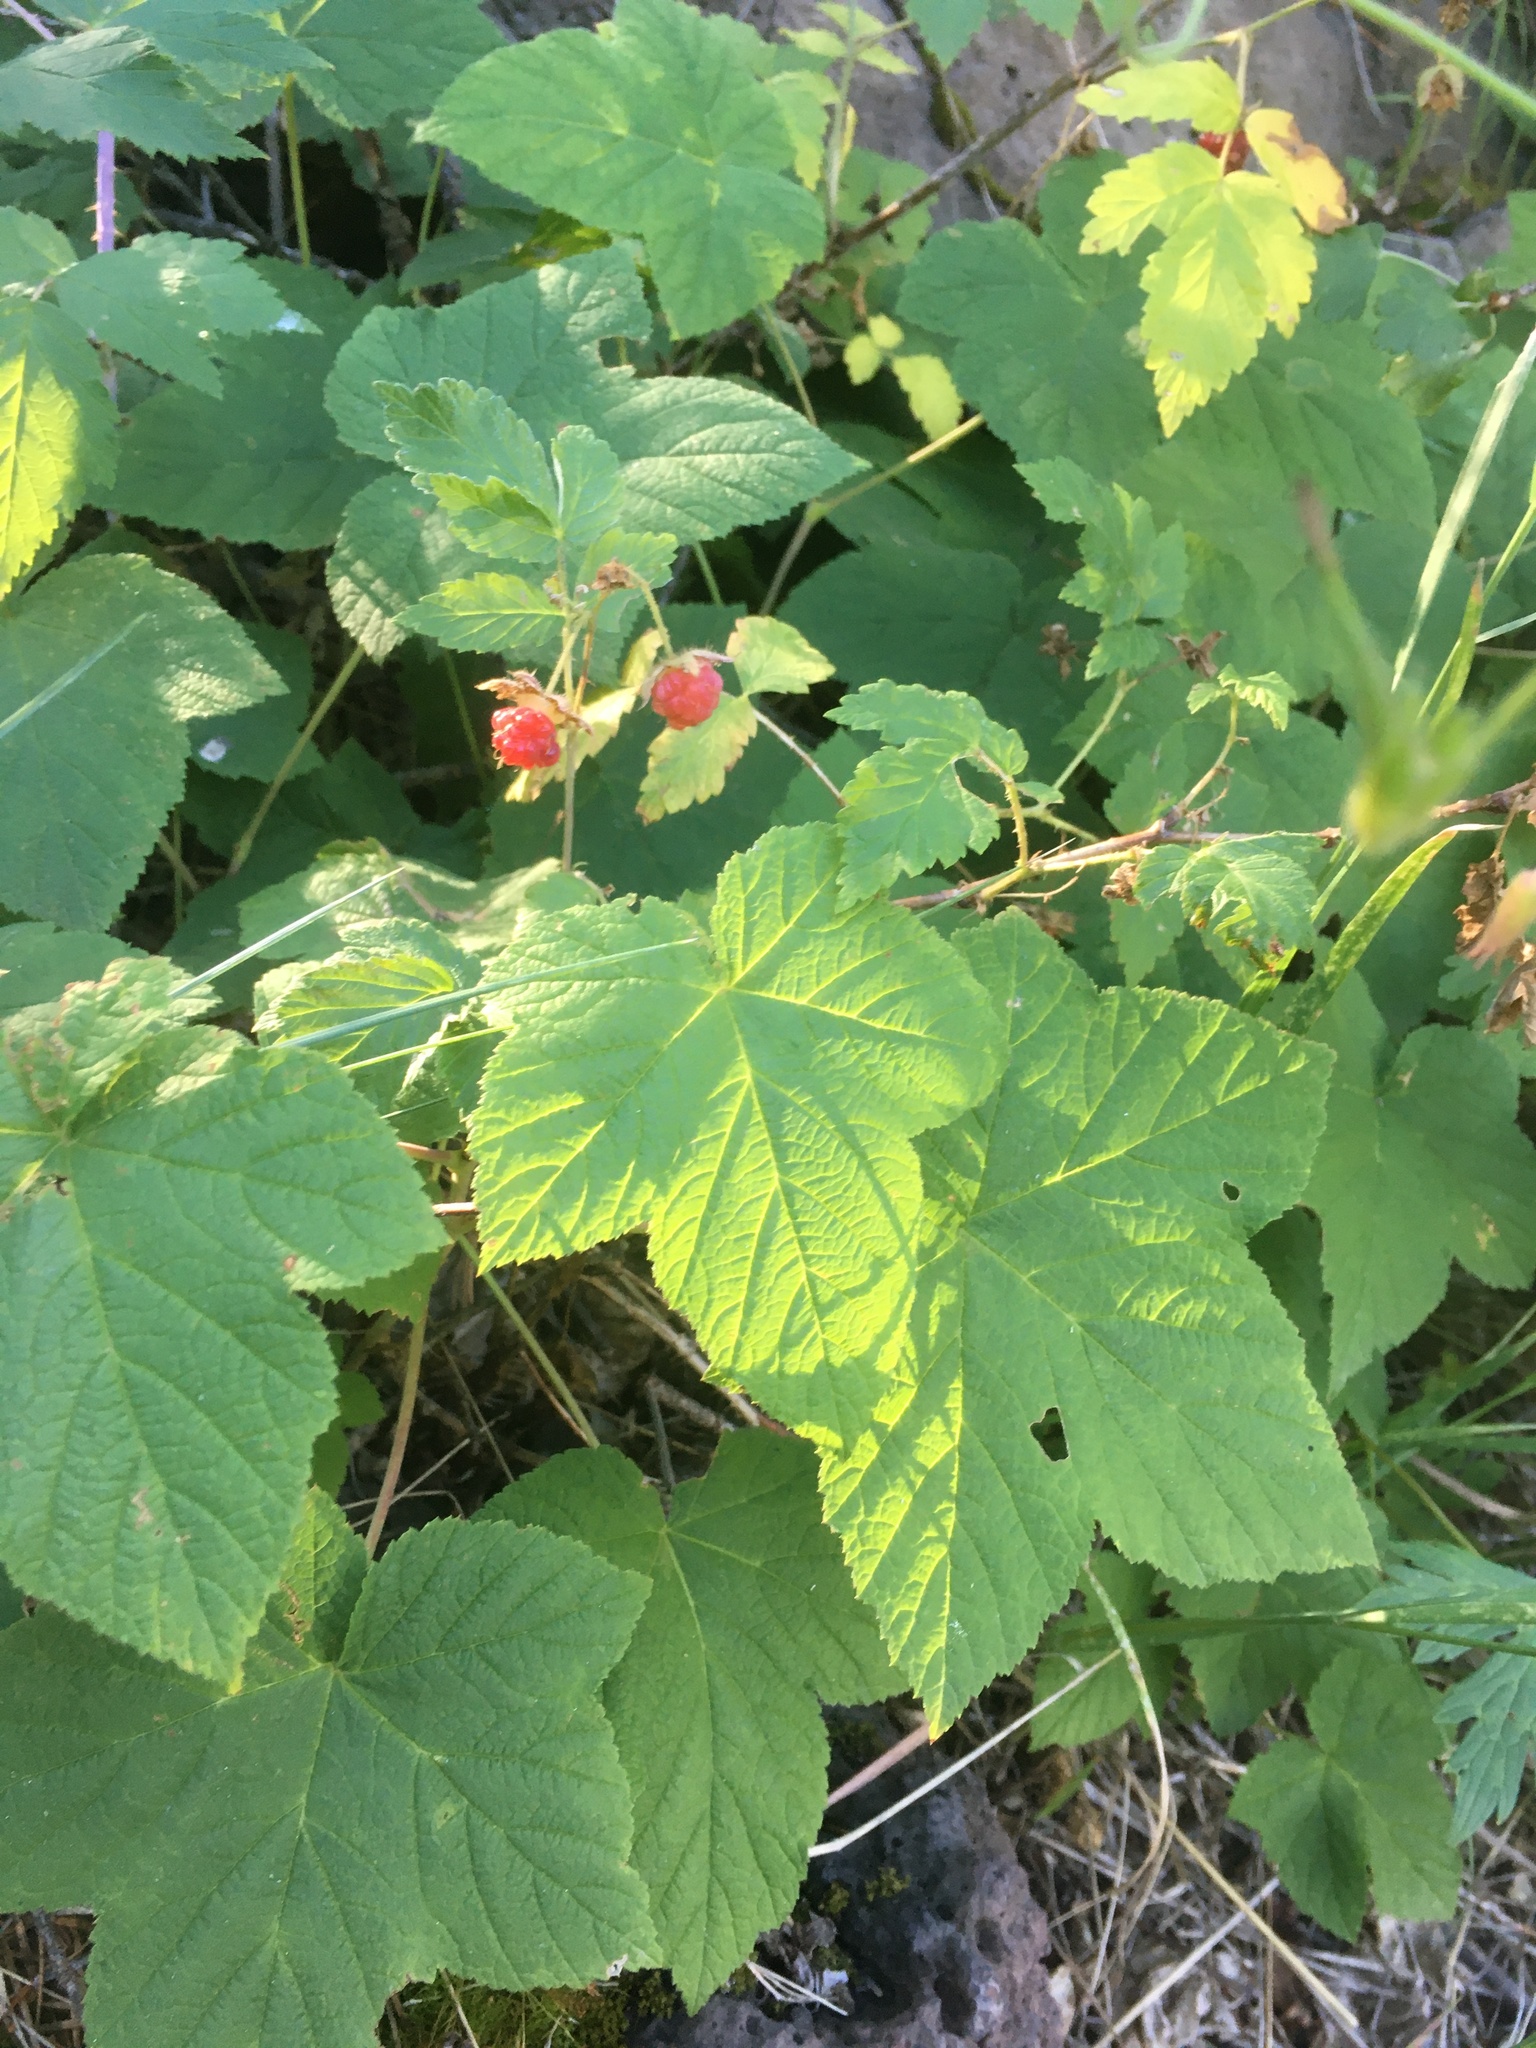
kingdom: Plantae
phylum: Tracheophyta
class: Magnoliopsida
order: Rosales
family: Rosaceae
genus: Rubus
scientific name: Rubus neomexicanus
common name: New mexico raspberry
